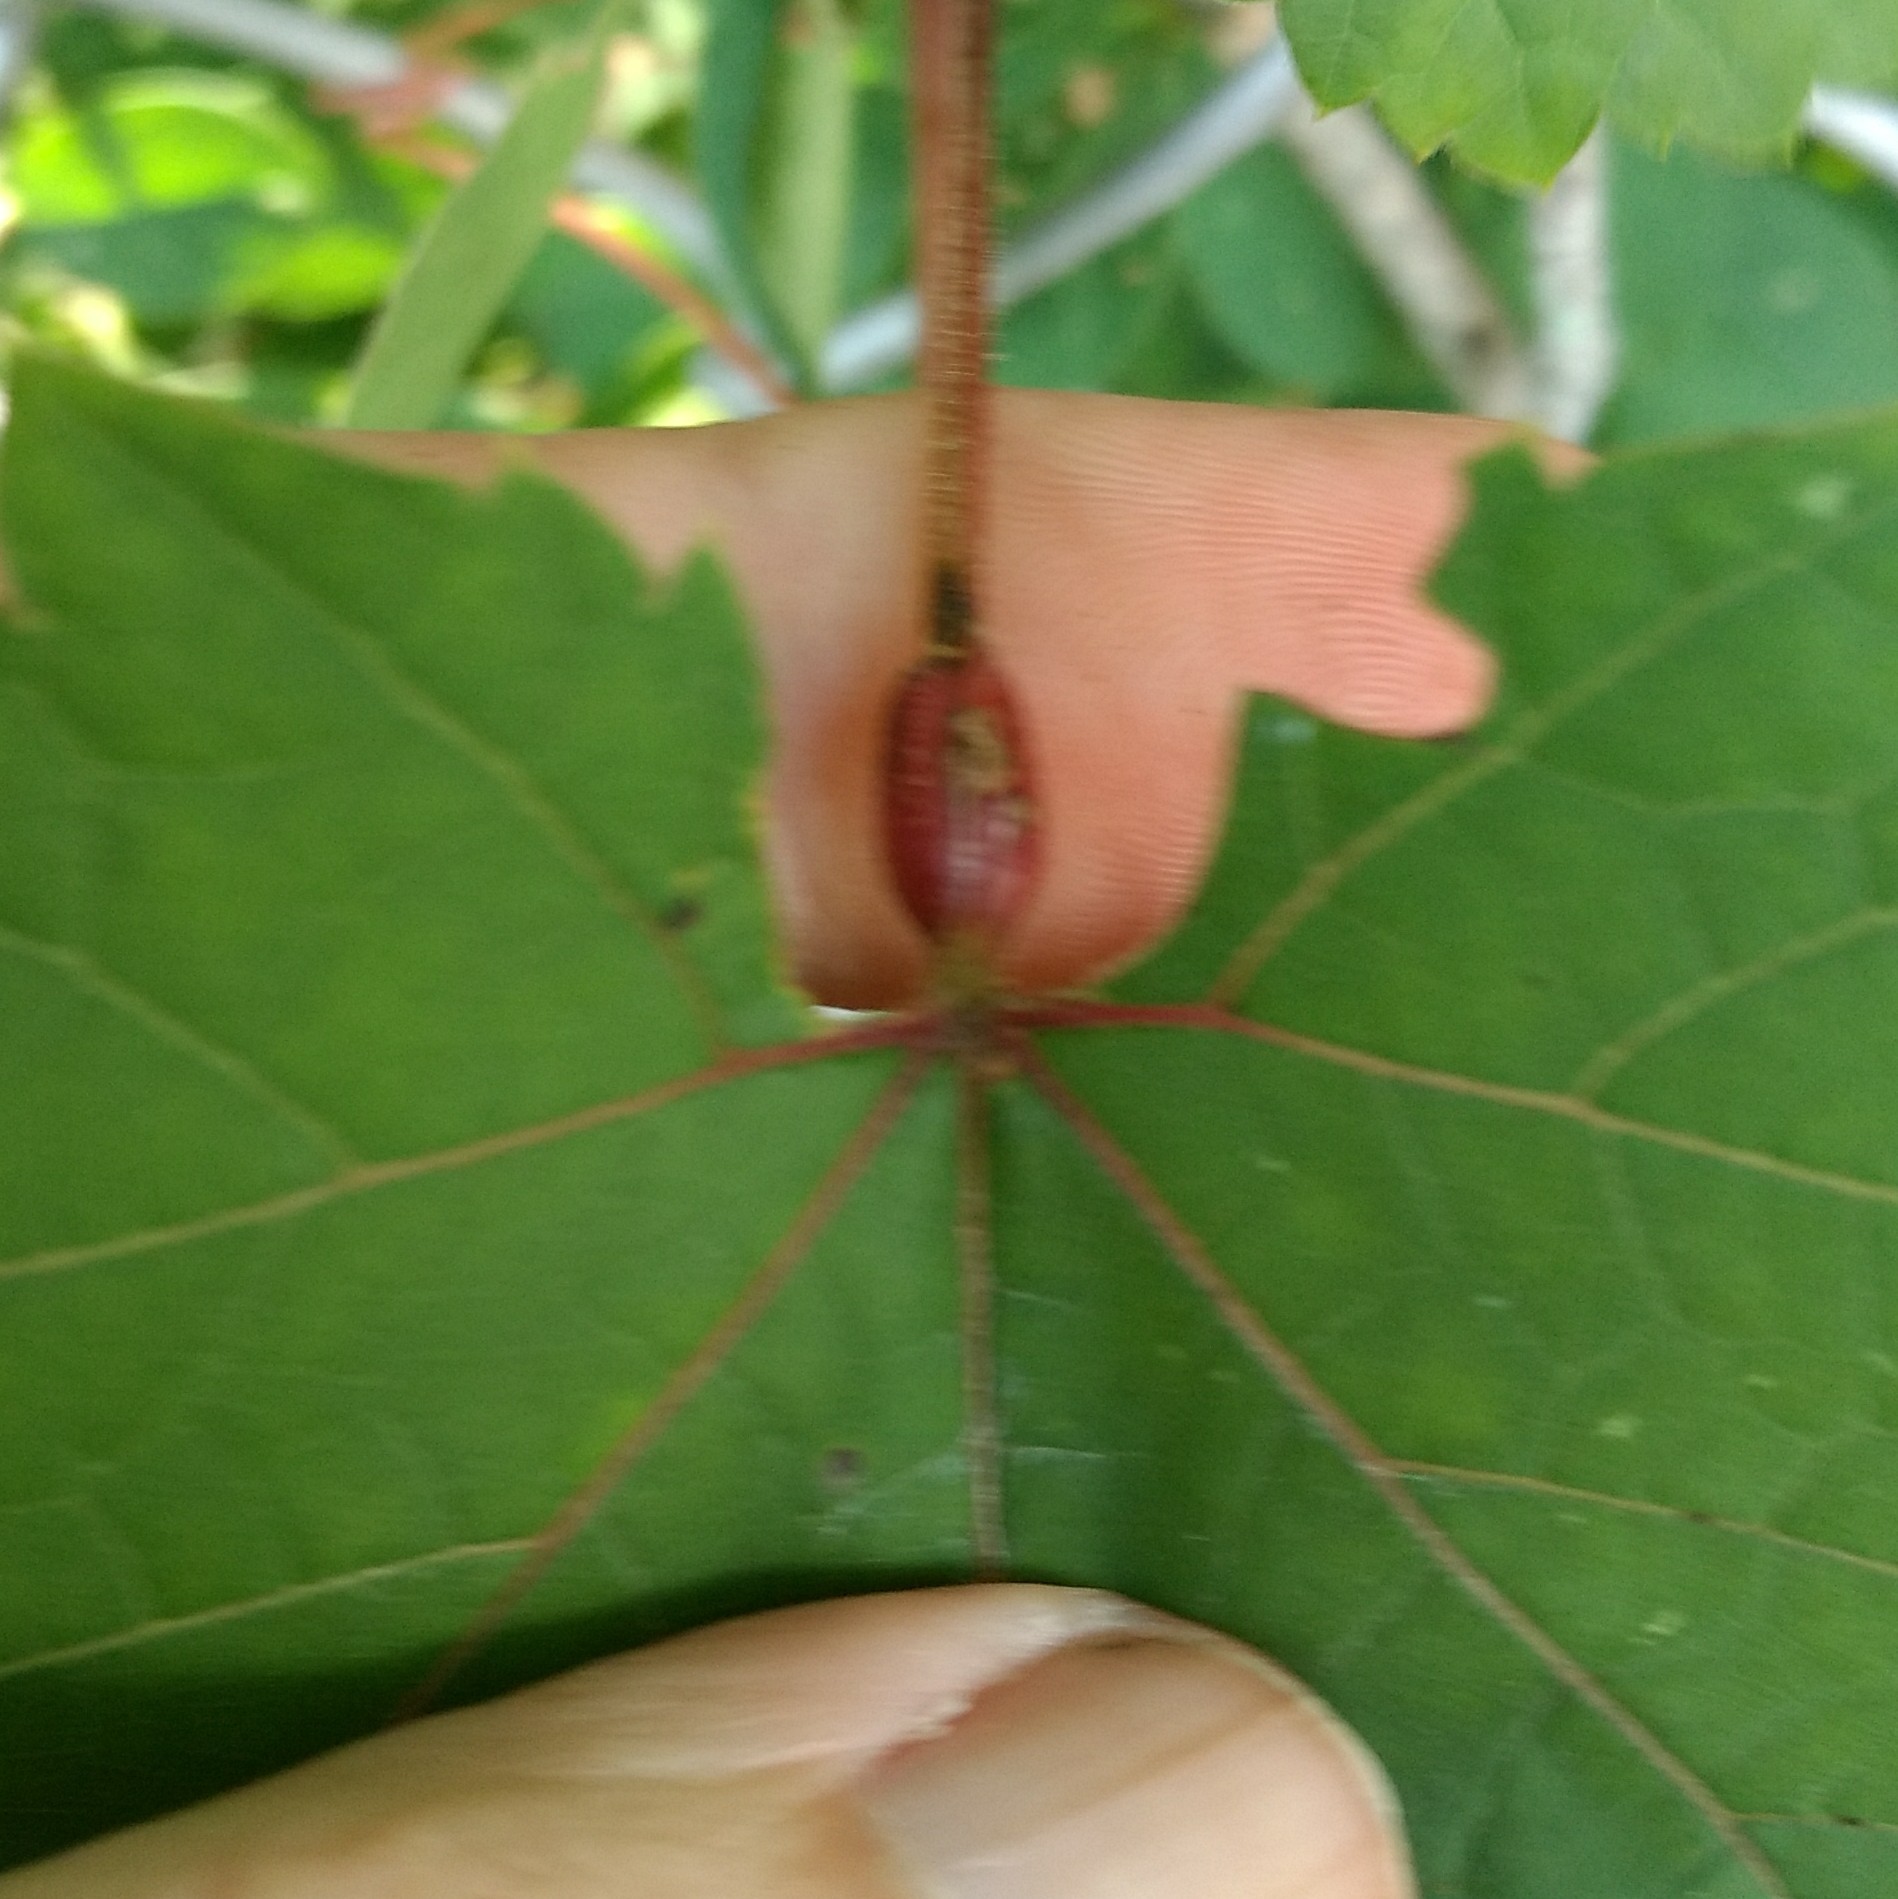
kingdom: Animalia
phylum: Arthropoda
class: Insecta
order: Diptera
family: Cecidomyiidae
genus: Neolasioptera
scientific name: Neolasioptera vitinea
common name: Grape leaf petiole gall
